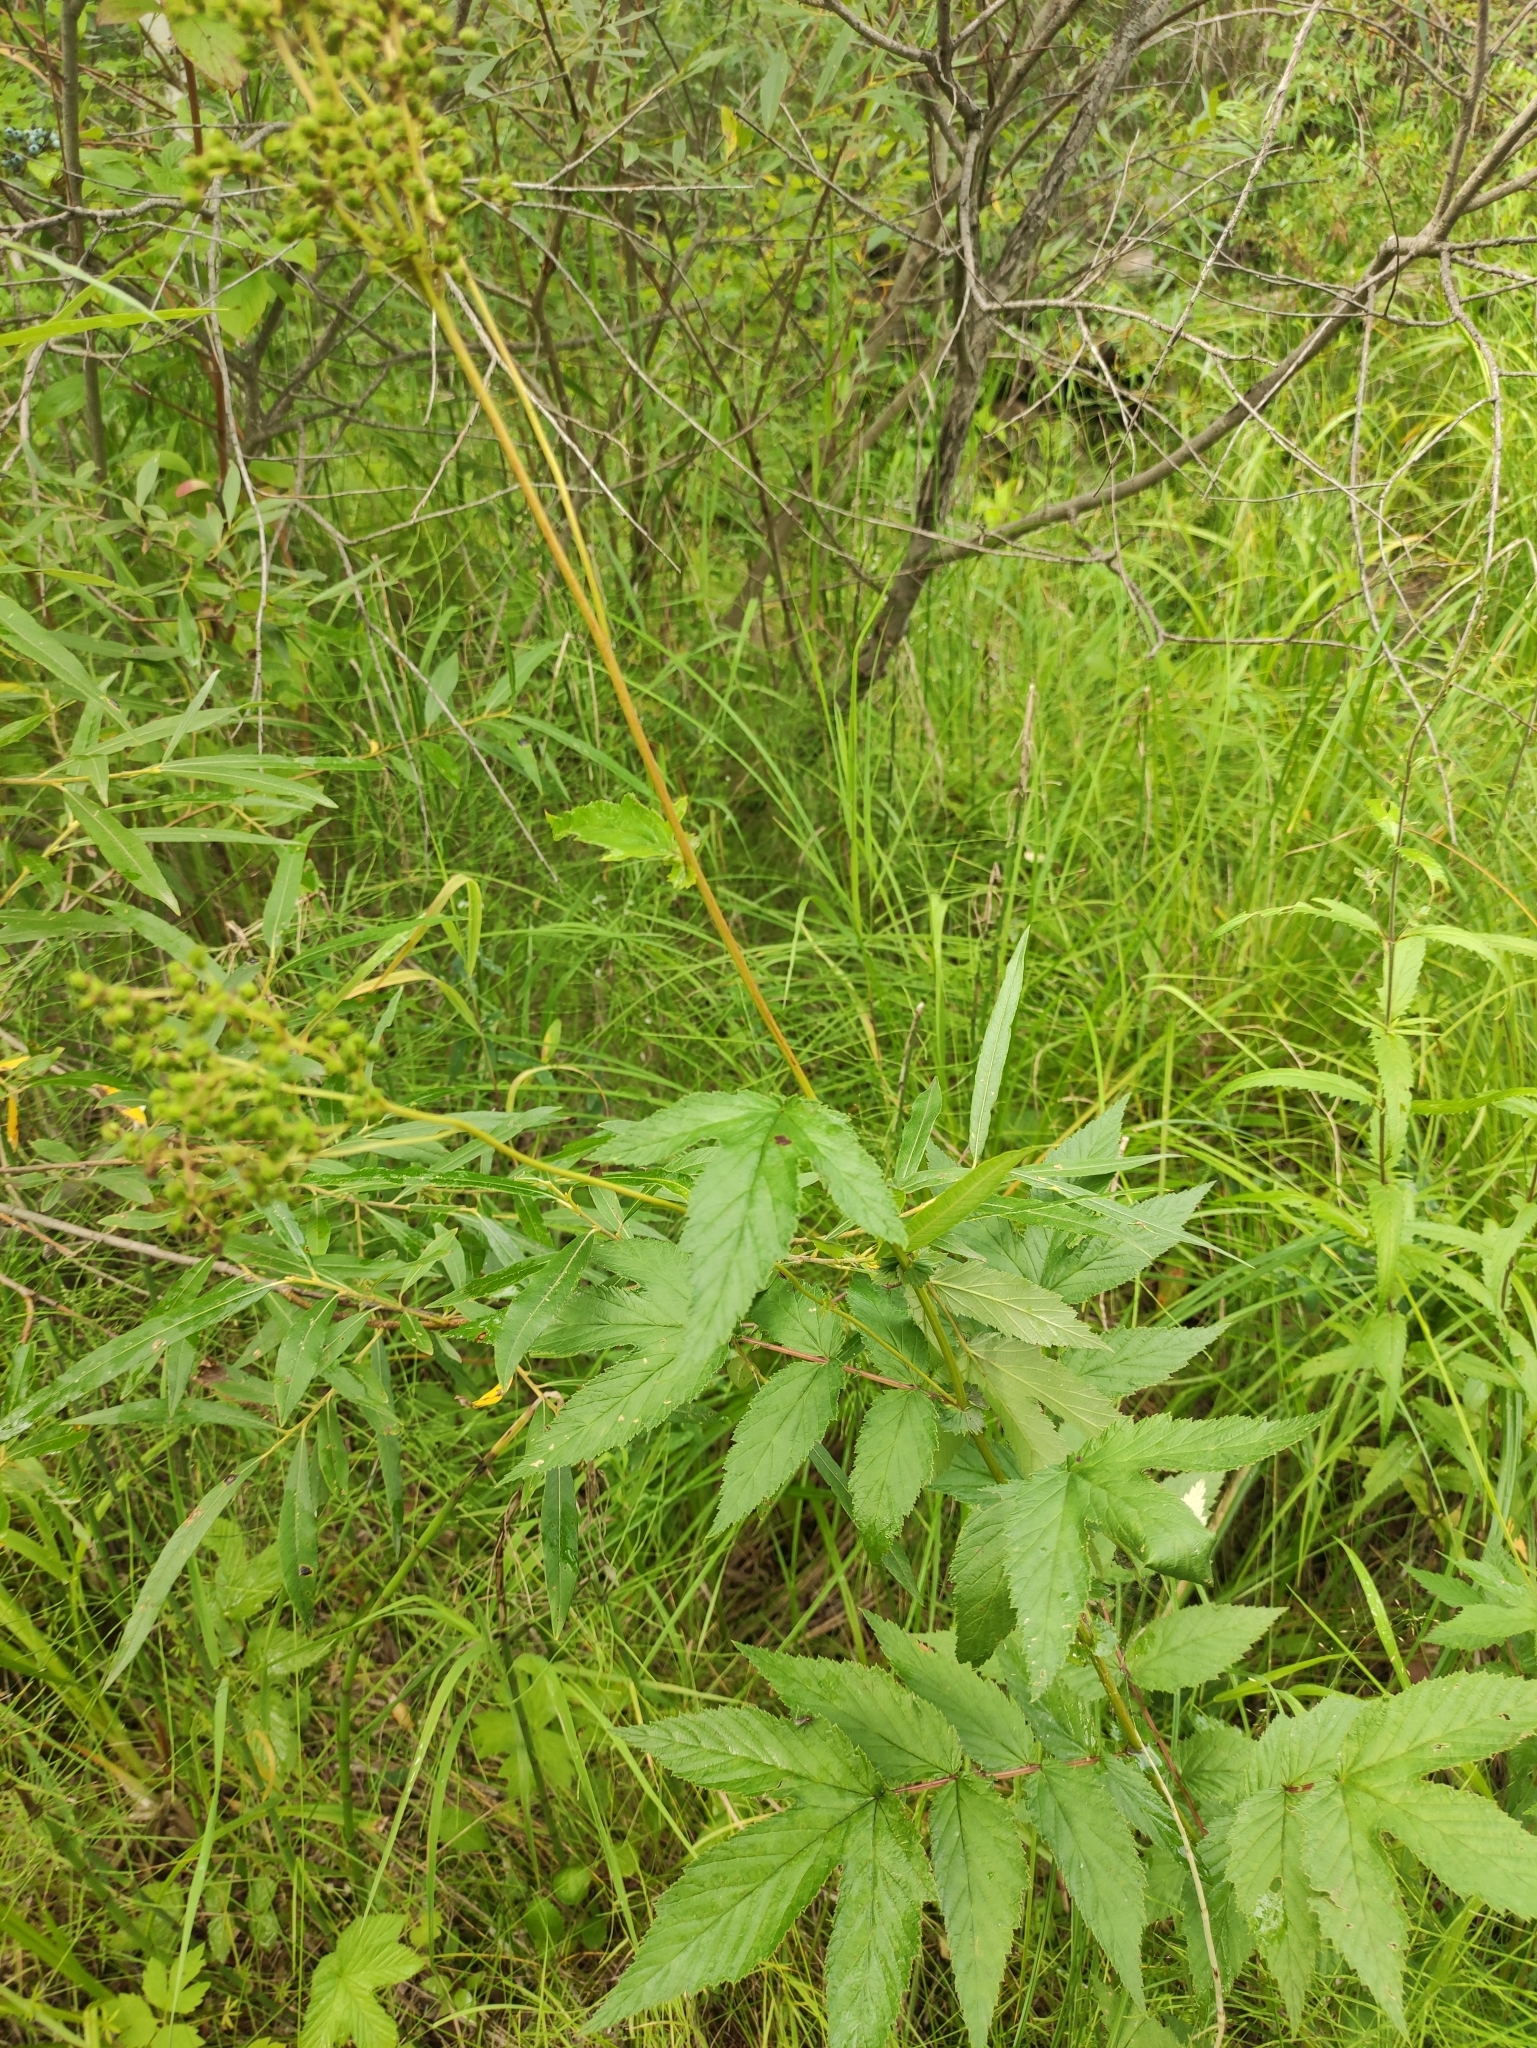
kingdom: Plantae
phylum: Tracheophyta
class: Magnoliopsida
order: Rosales
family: Rosaceae
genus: Filipendula
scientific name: Filipendula ulmaria
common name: Meadowsweet
